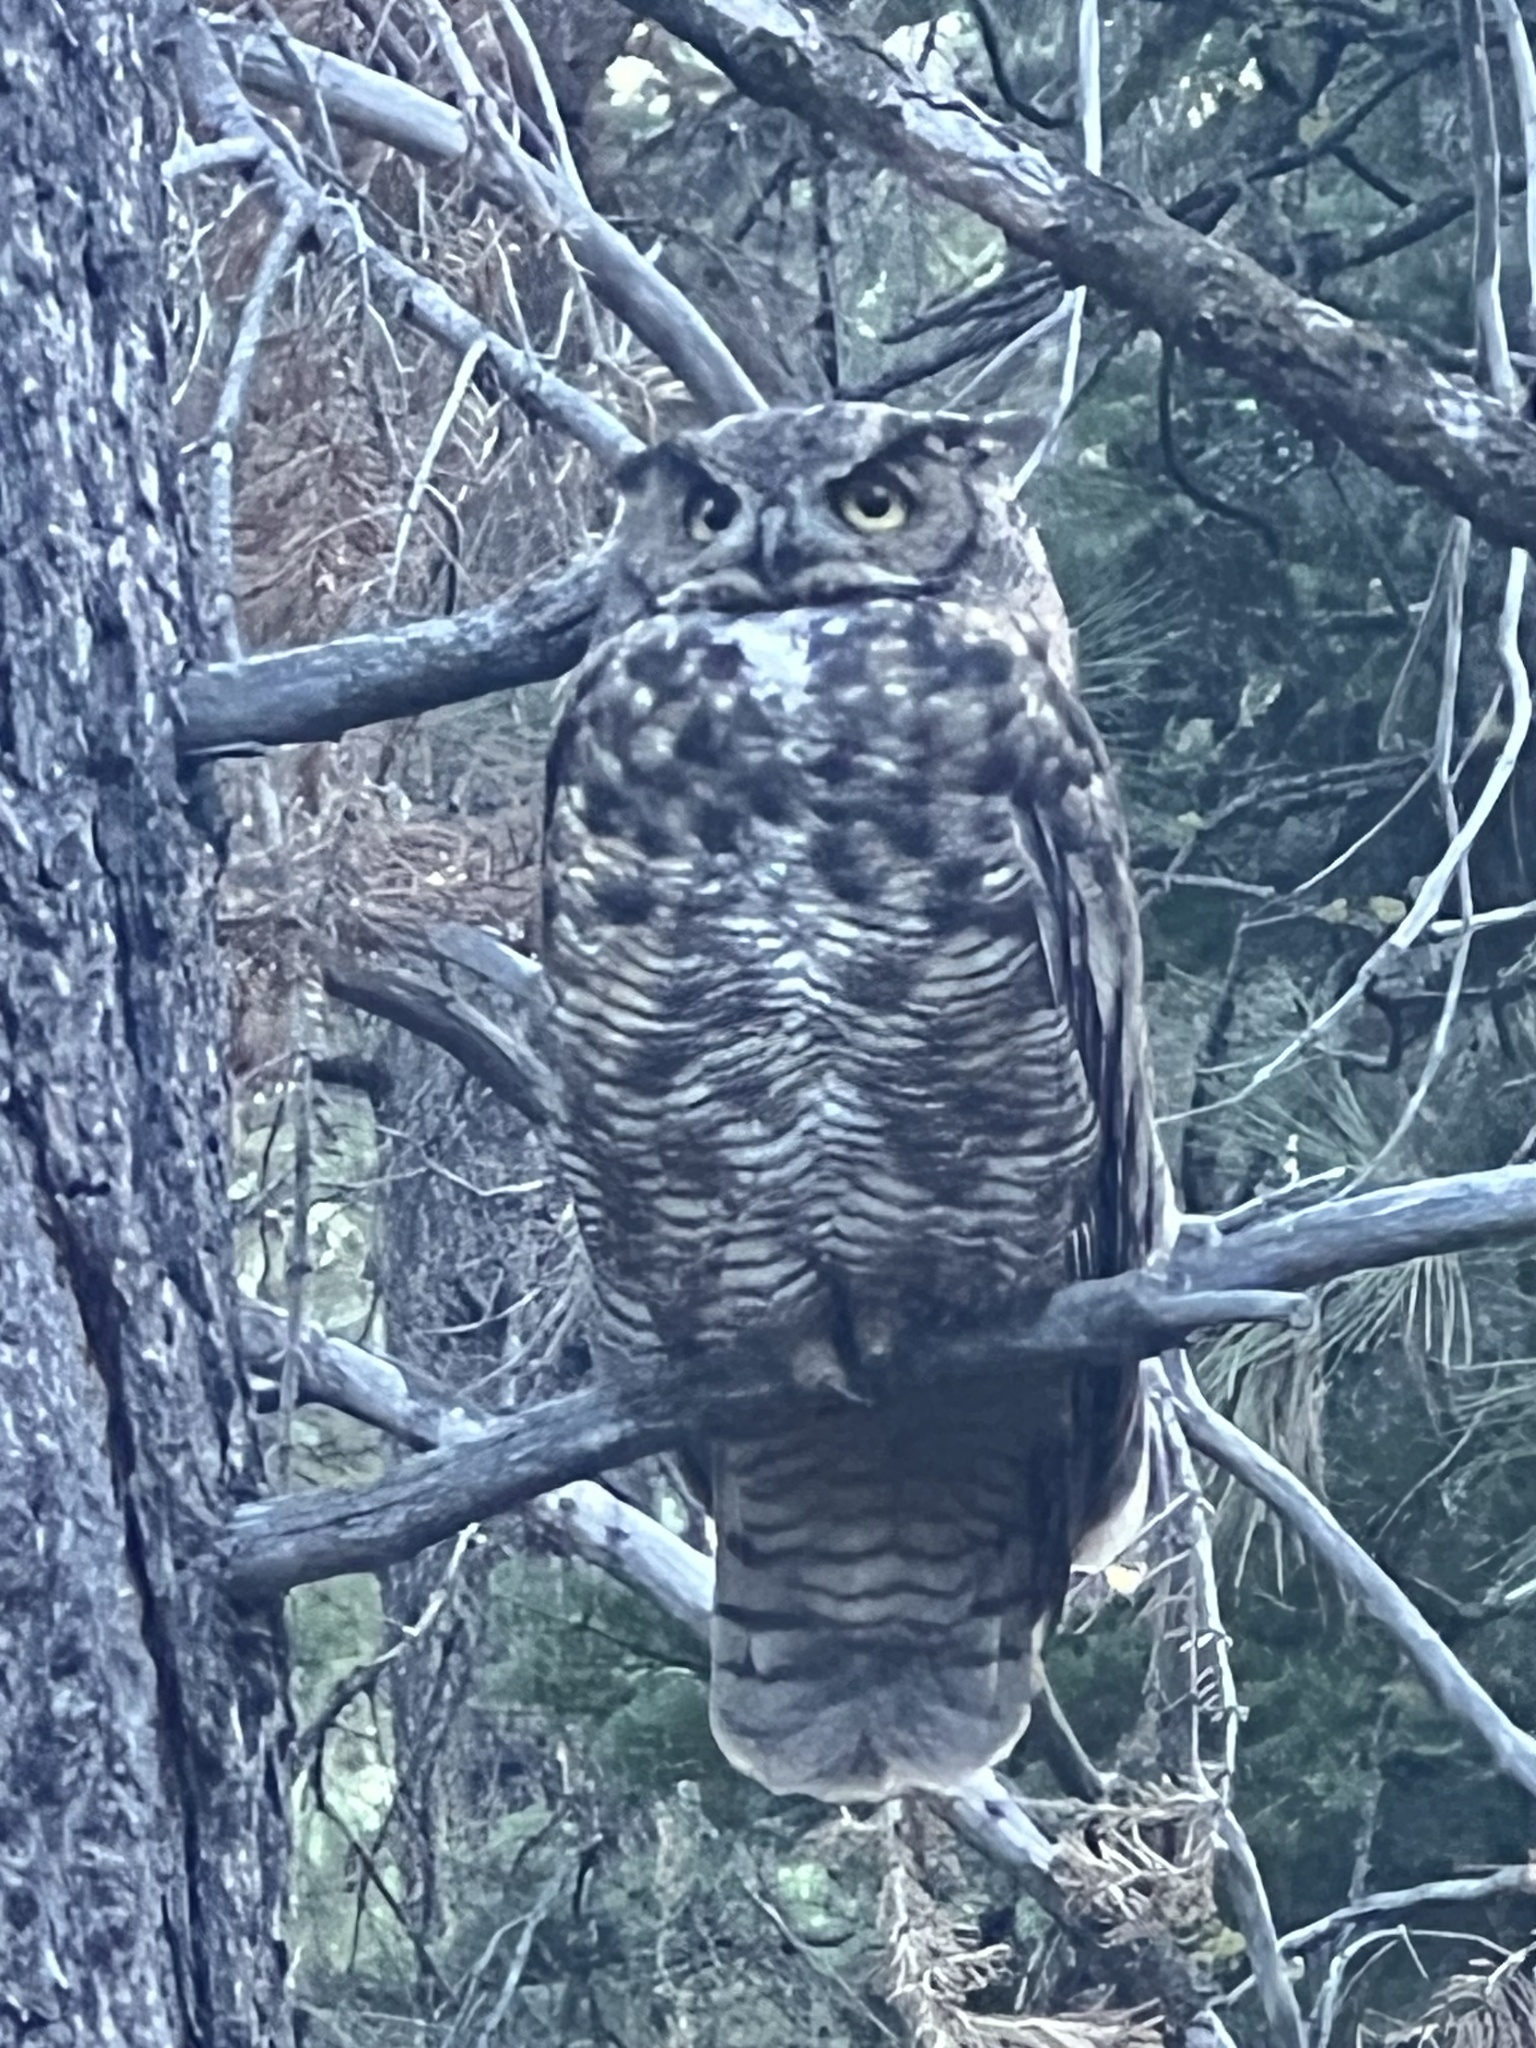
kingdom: Animalia
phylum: Chordata
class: Aves
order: Strigiformes
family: Strigidae
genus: Bubo
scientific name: Bubo virginianus
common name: Great horned owl
